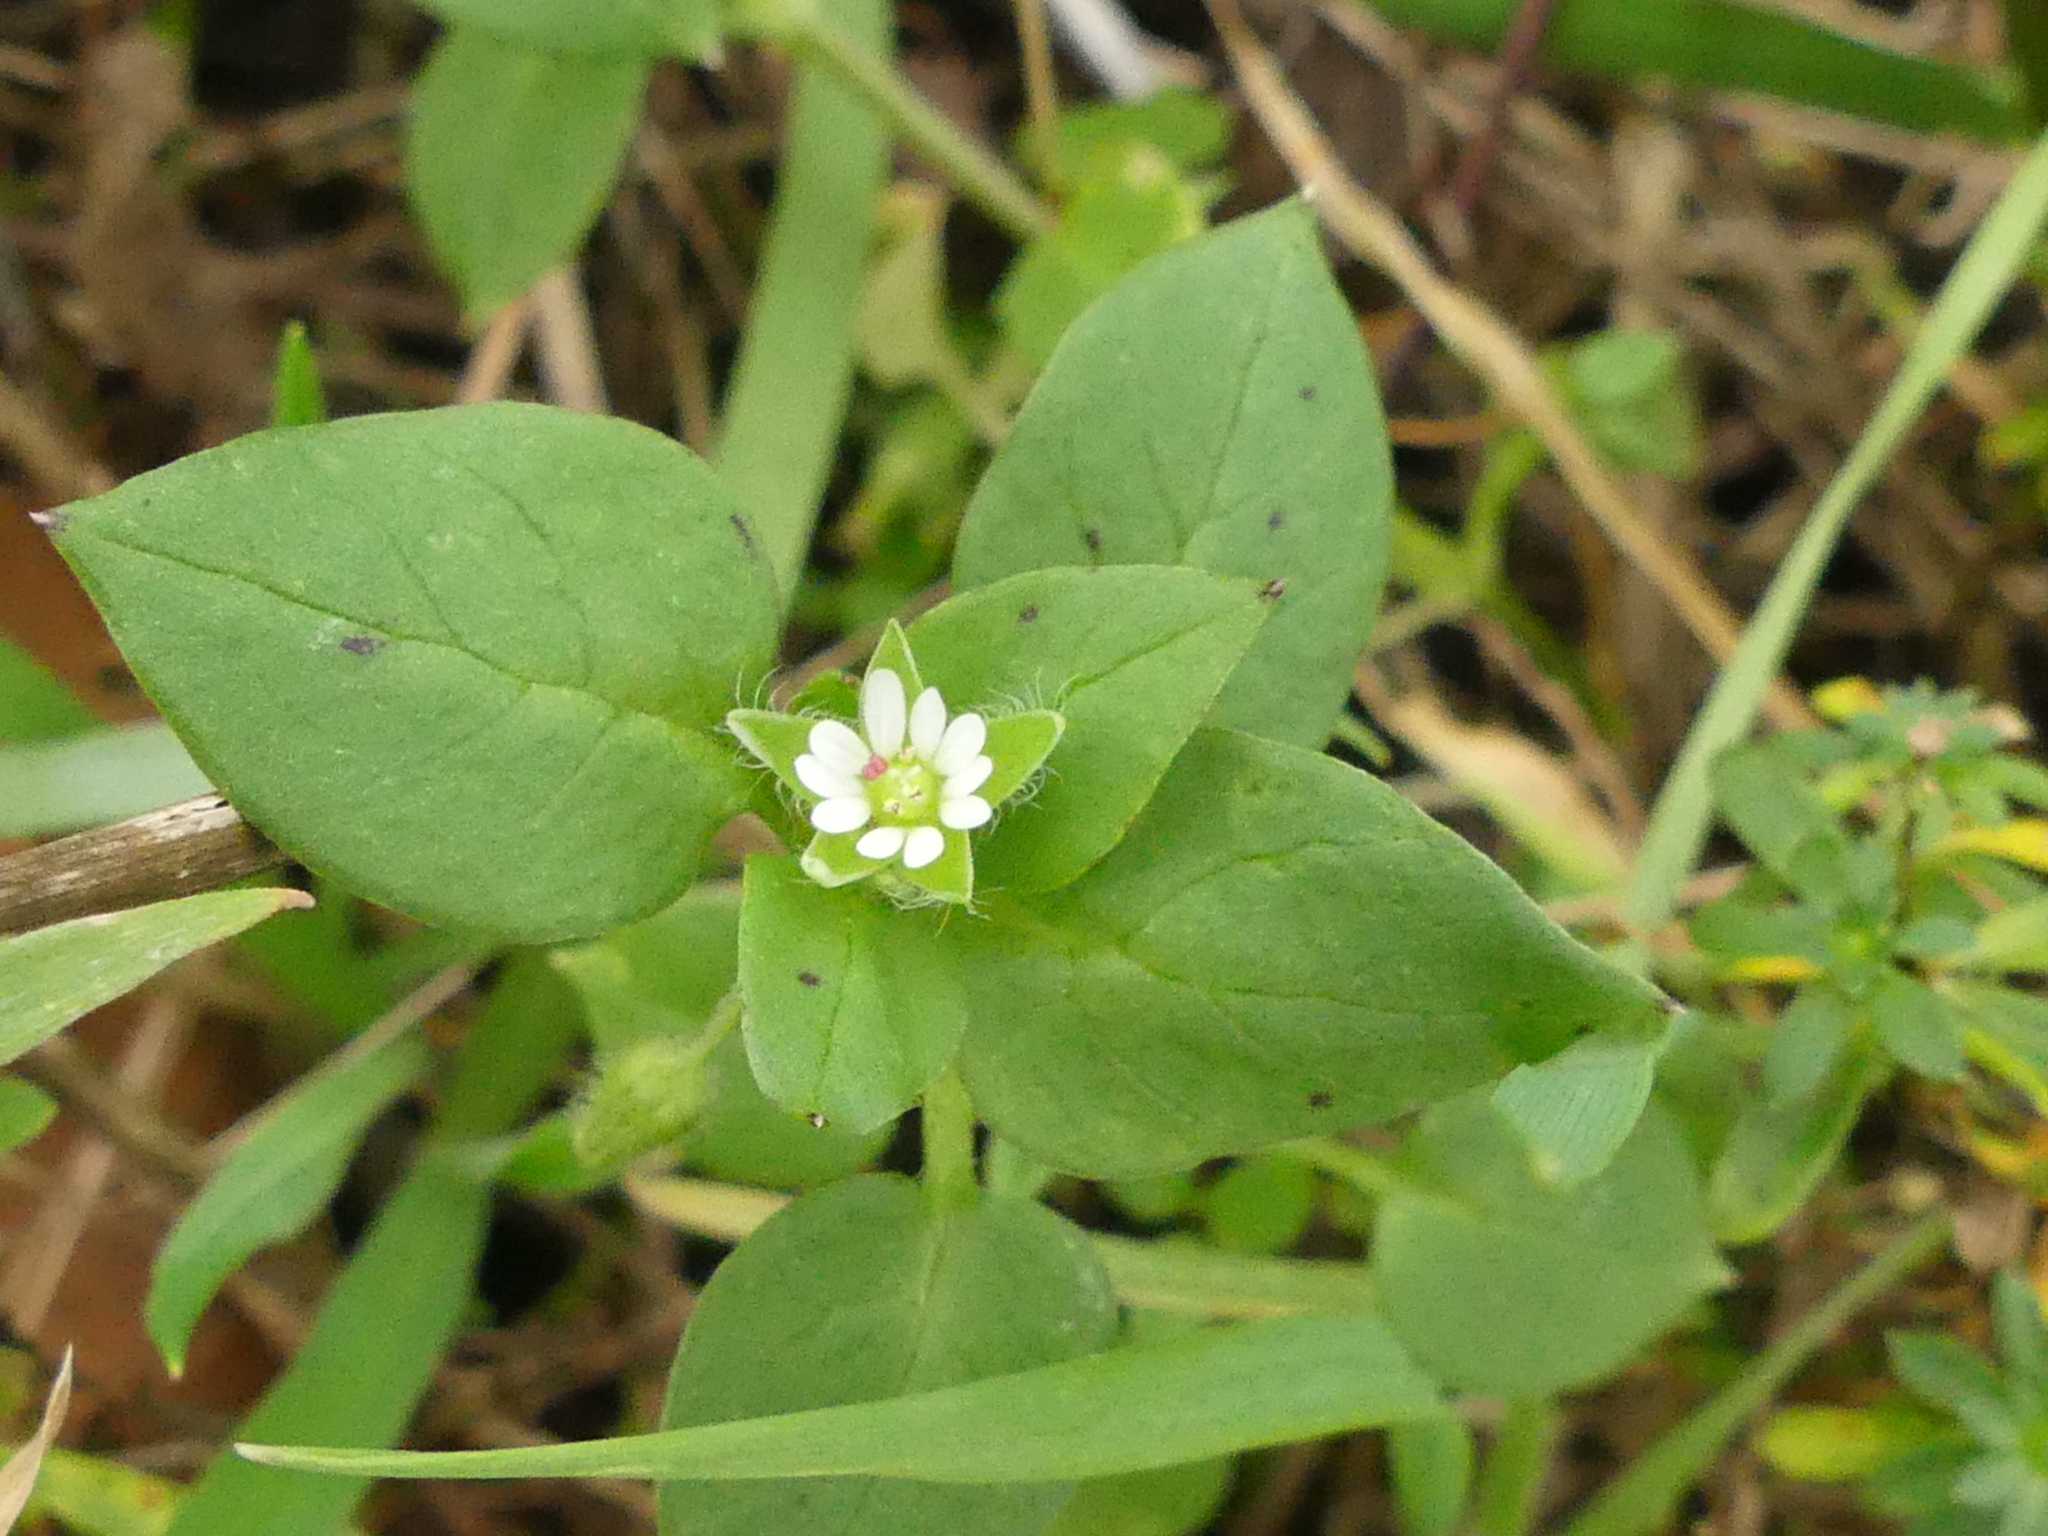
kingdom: Plantae
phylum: Tracheophyta
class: Magnoliopsida
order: Caryophyllales
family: Caryophyllaceae
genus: Stellaria
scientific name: Stellaria media
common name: Common chickweed
